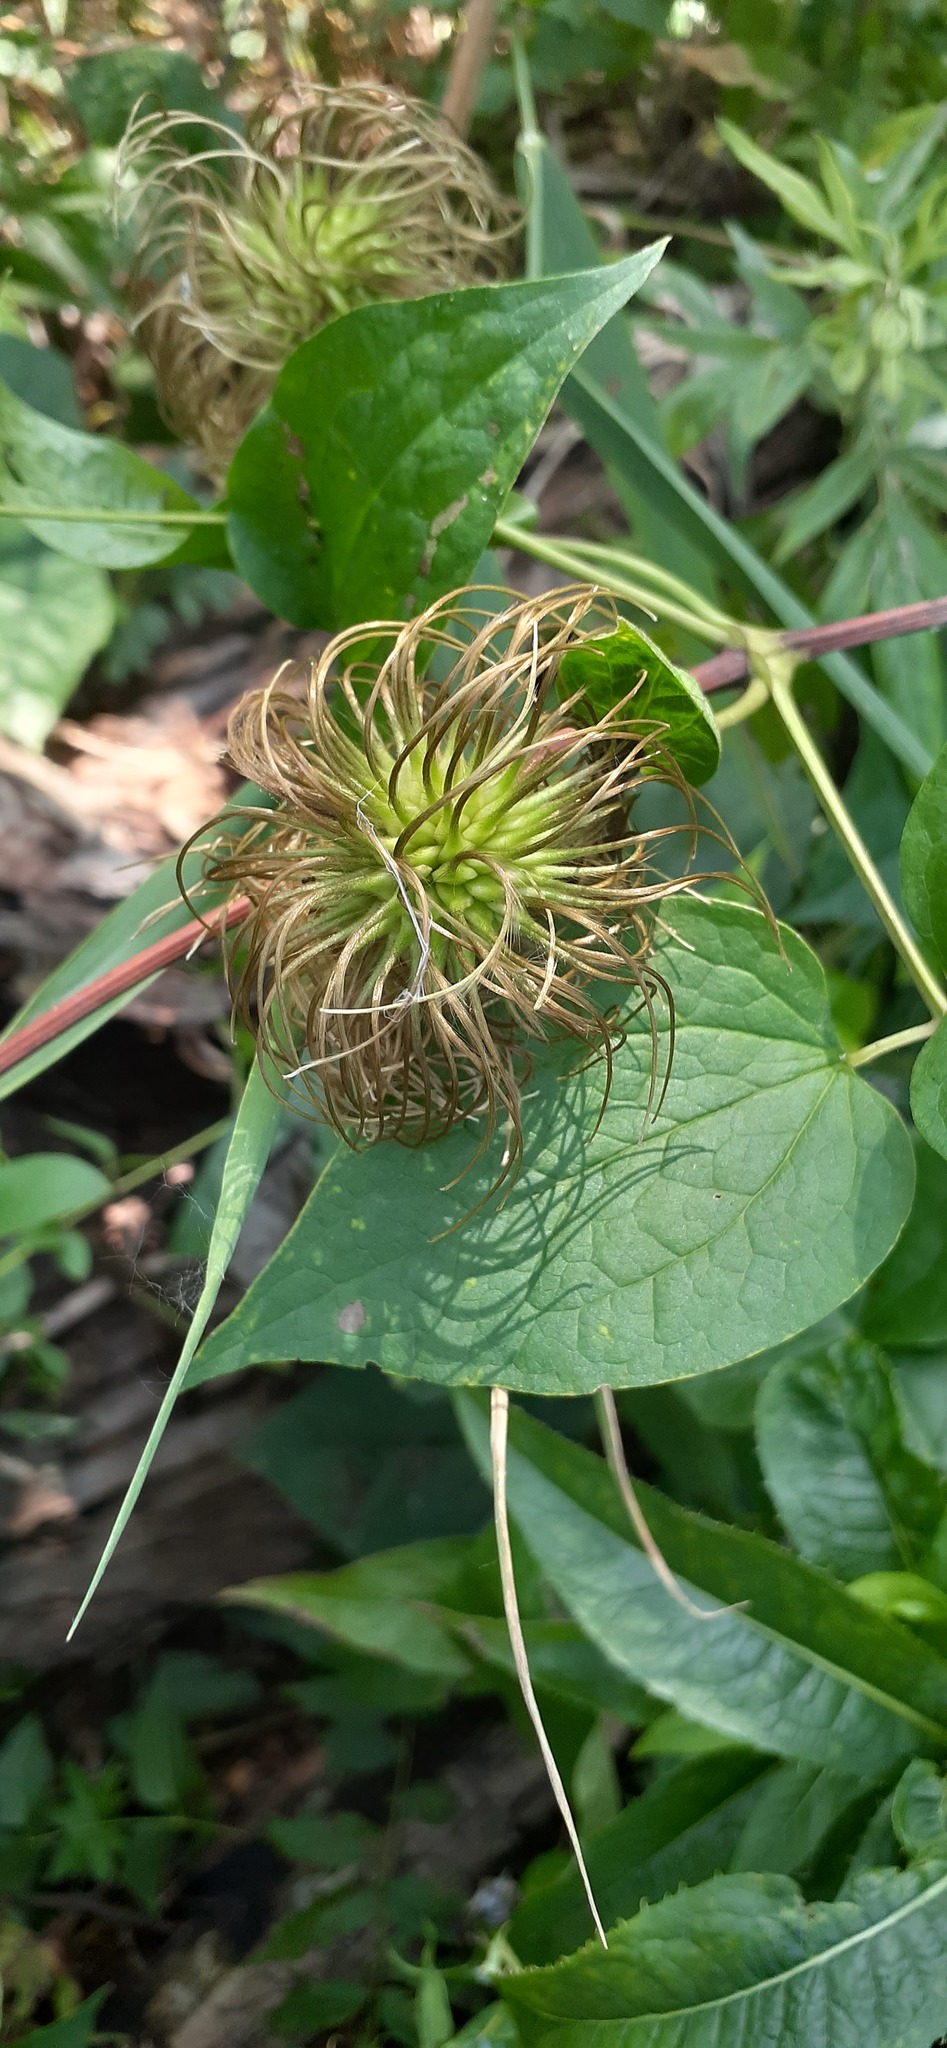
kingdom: Plantae
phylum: Tracheophyta
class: Magnoliopsida
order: Ranunculales
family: Ranunculaceae
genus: Clematis
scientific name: Clematis fusca
